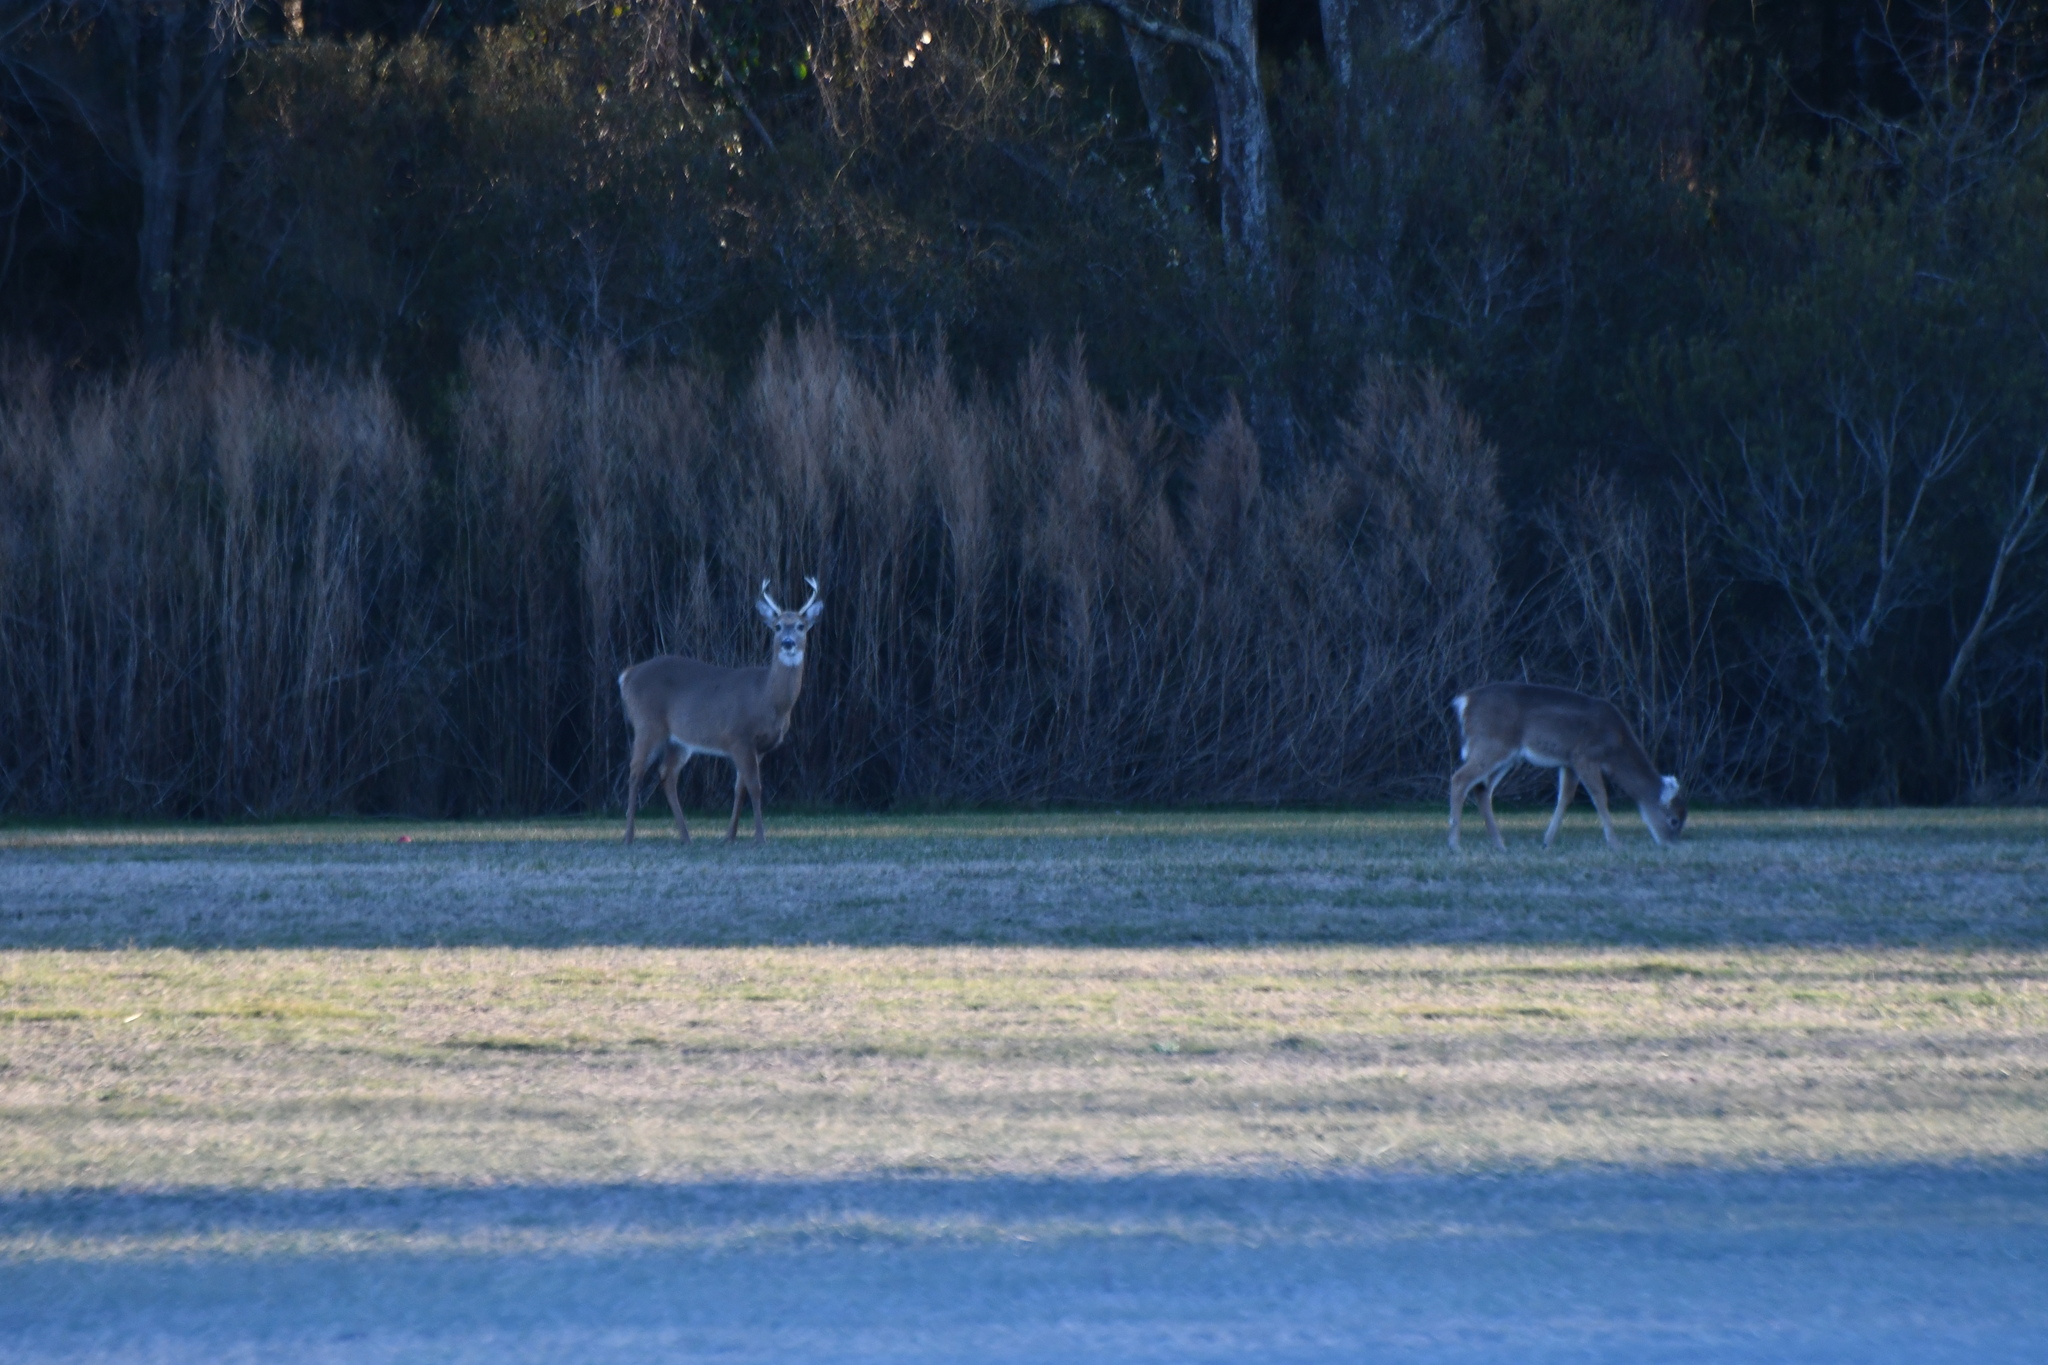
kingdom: Animalia
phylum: Chordata
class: Mammalia
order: Artiodactyla
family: Cervidae
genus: Odocoileus
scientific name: Odocoileus virginianus
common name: White-tailed deer
